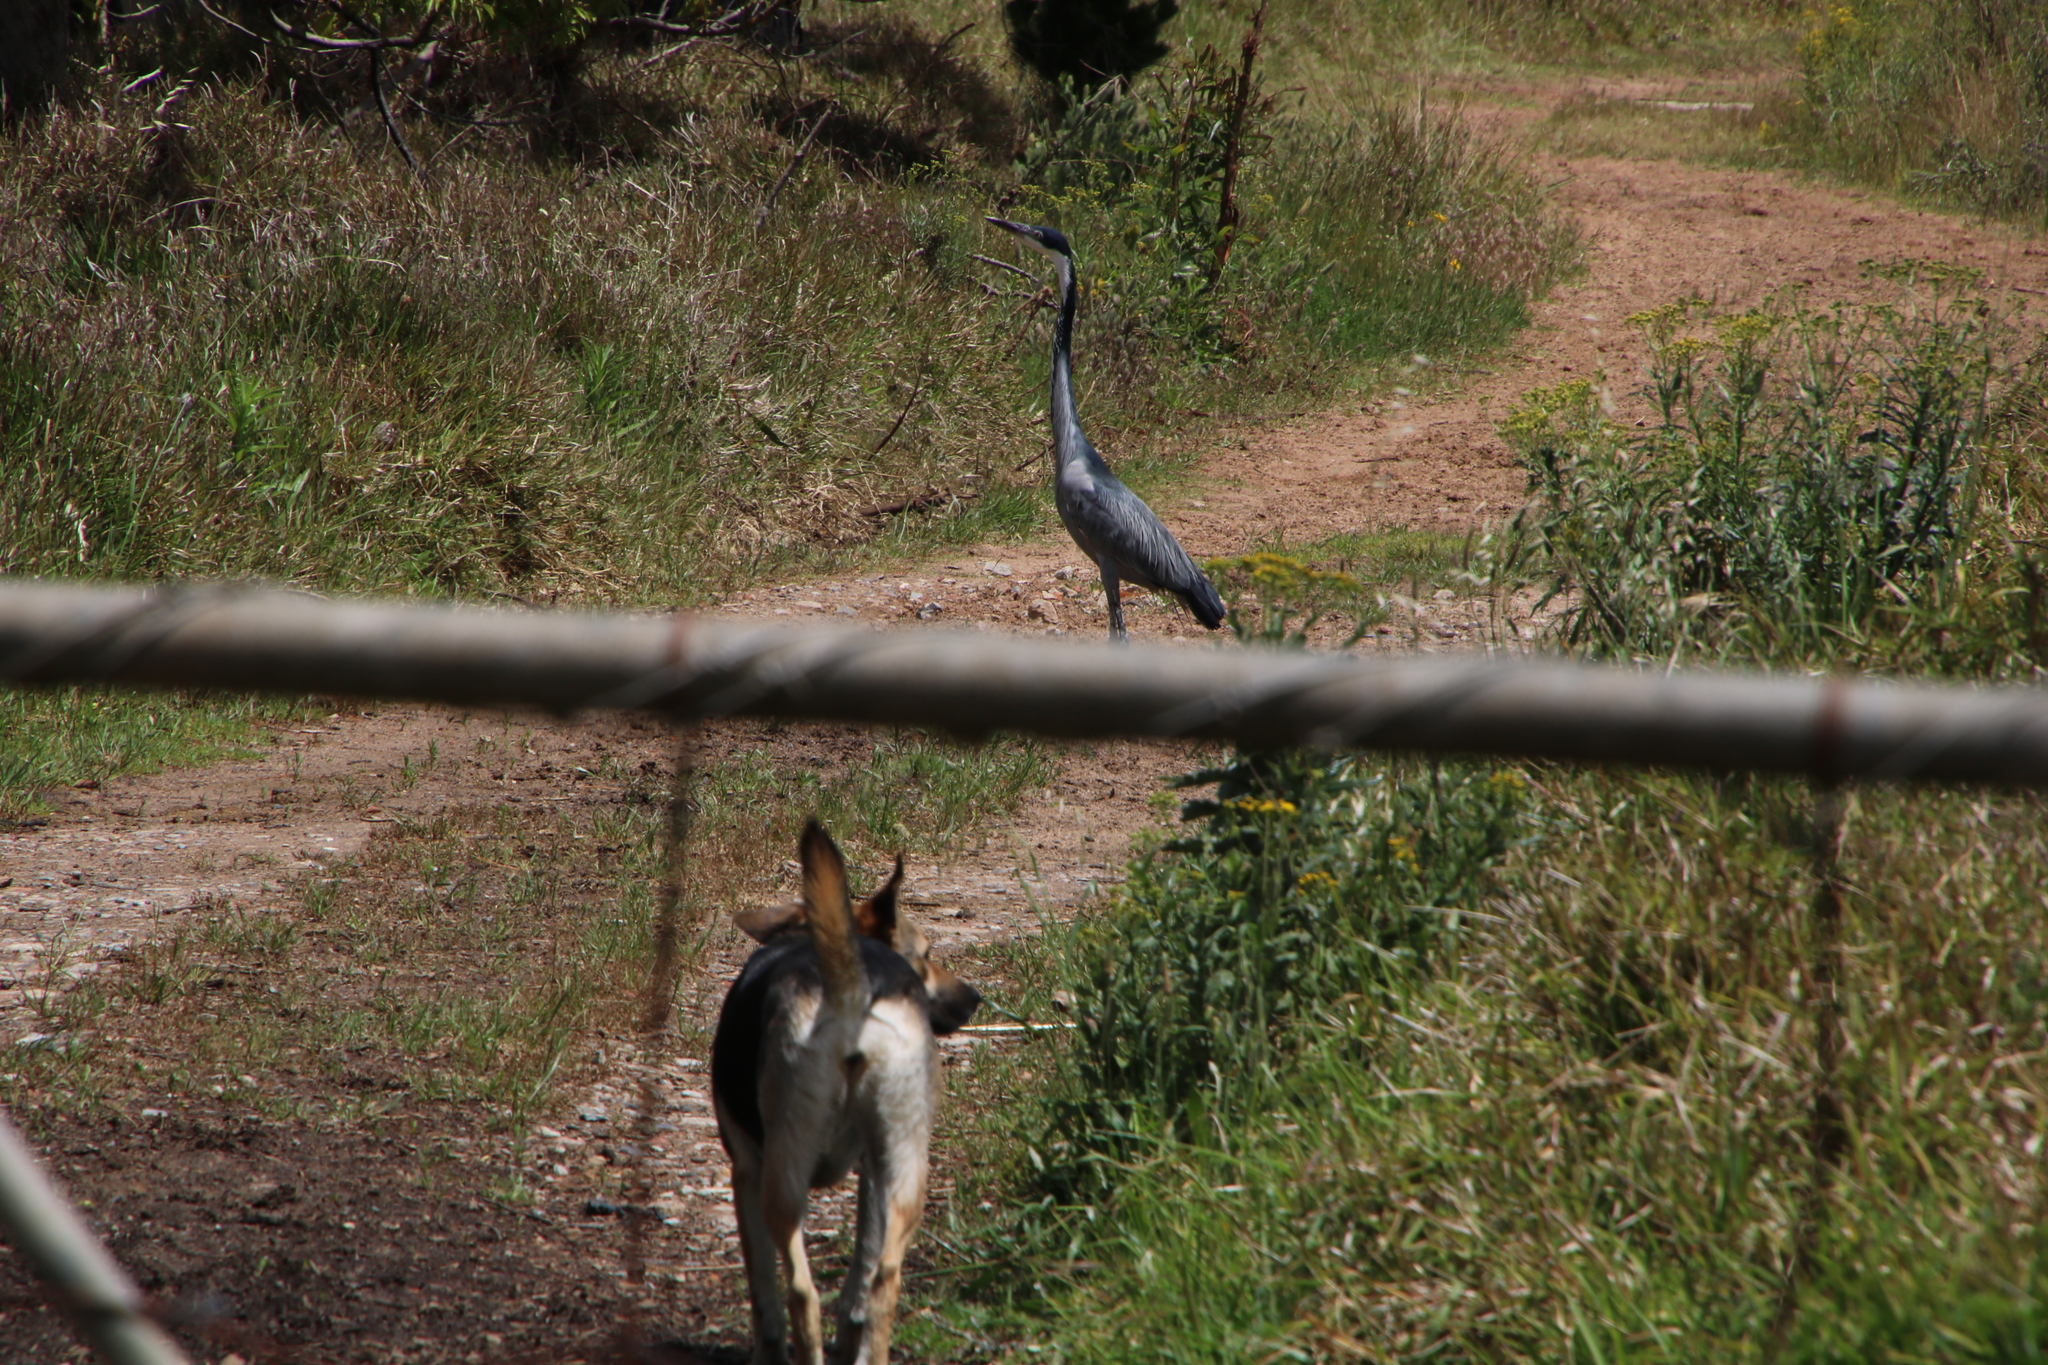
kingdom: Animalia
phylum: Chordata
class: Aves
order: Pelecaniformes
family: Ardeidae
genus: Ardea
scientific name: Ardea melanocephala
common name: Black-headed heron
